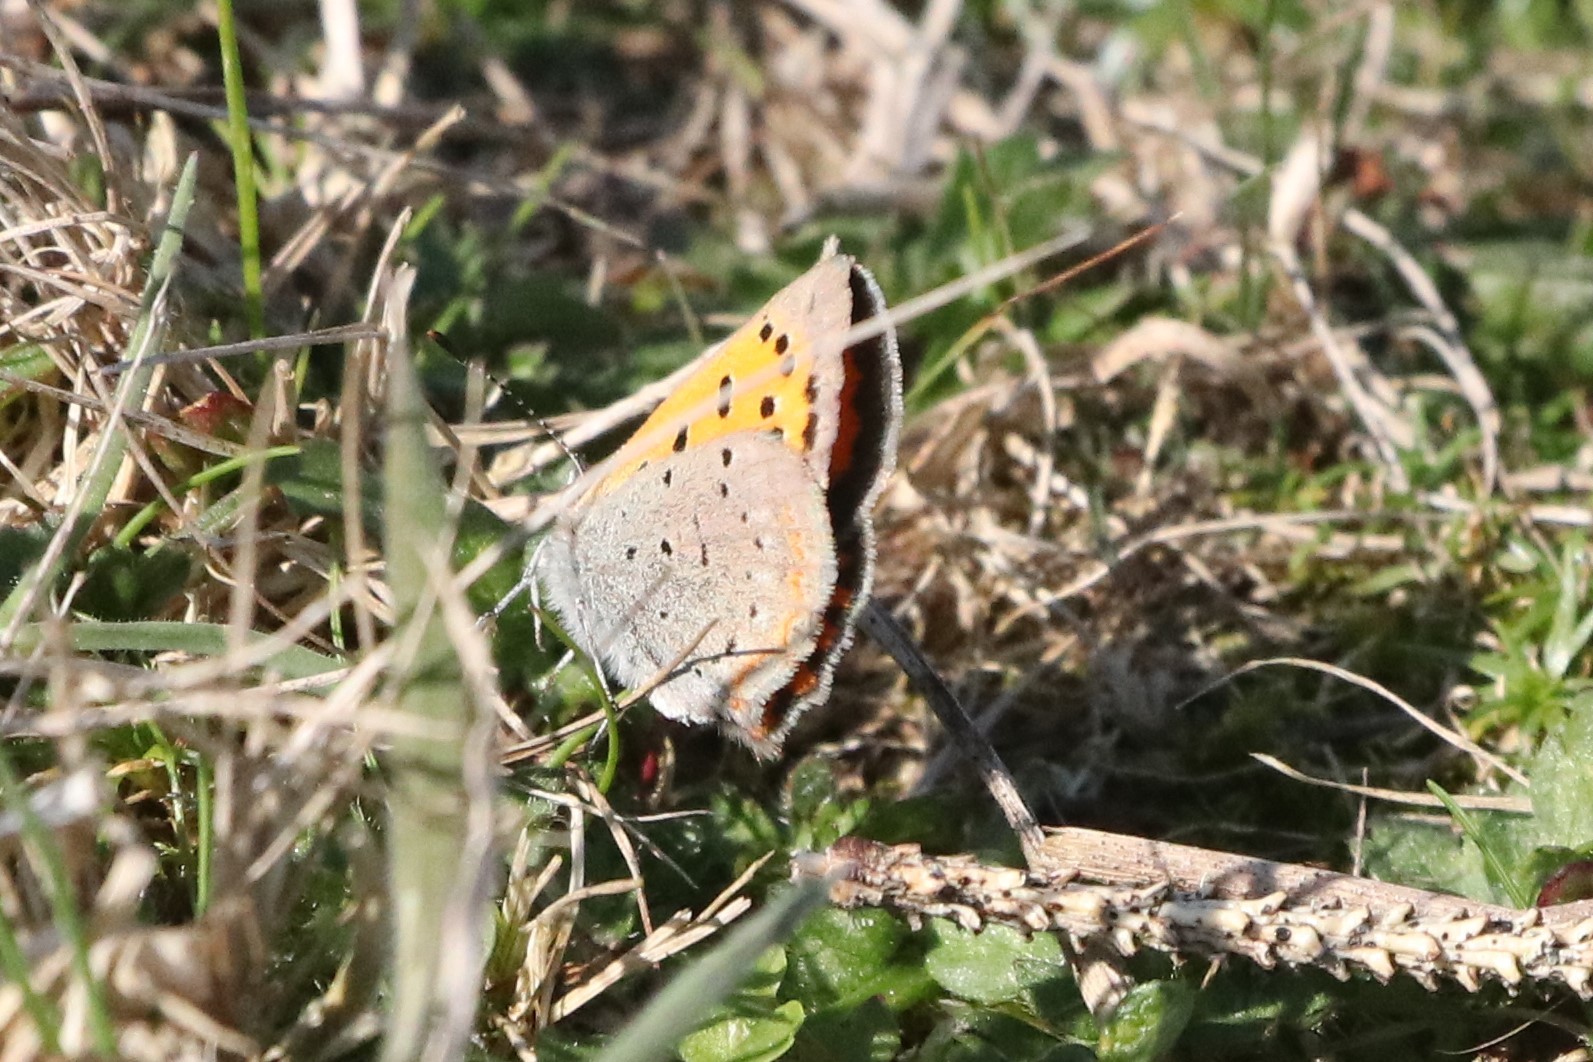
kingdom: Animalia
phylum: Arthropoda
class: Insecta
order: Lepidoptera
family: Lycaenidae
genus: Lycaena
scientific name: Lycaena hypophlaeas
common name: American copper
